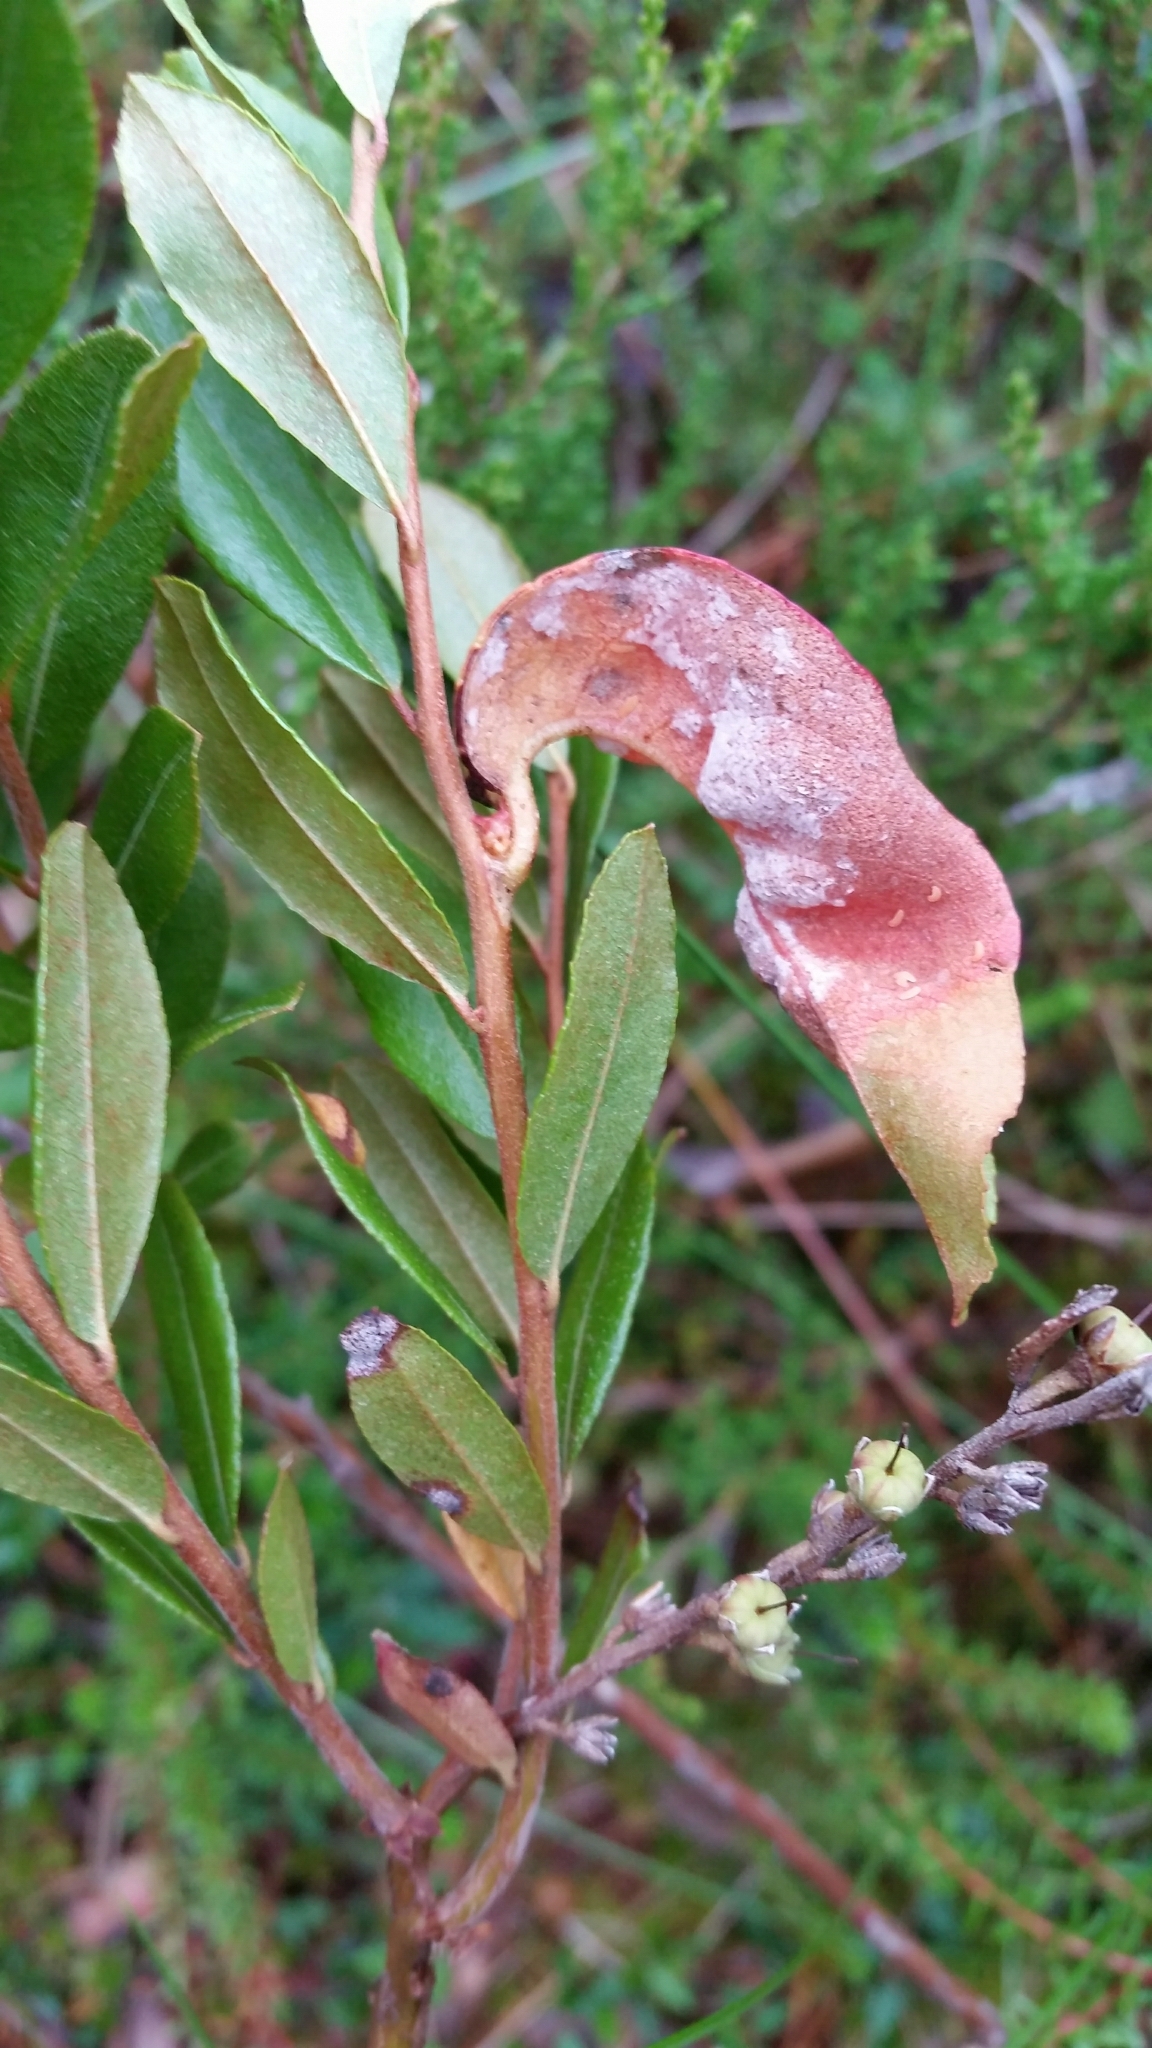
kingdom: Fungi
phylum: Basidiomycota
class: Exobasidiomycetes
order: Exobasidiales
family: Exobasidiaceae
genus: Exobasidium
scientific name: Exobasidium cassandrae
